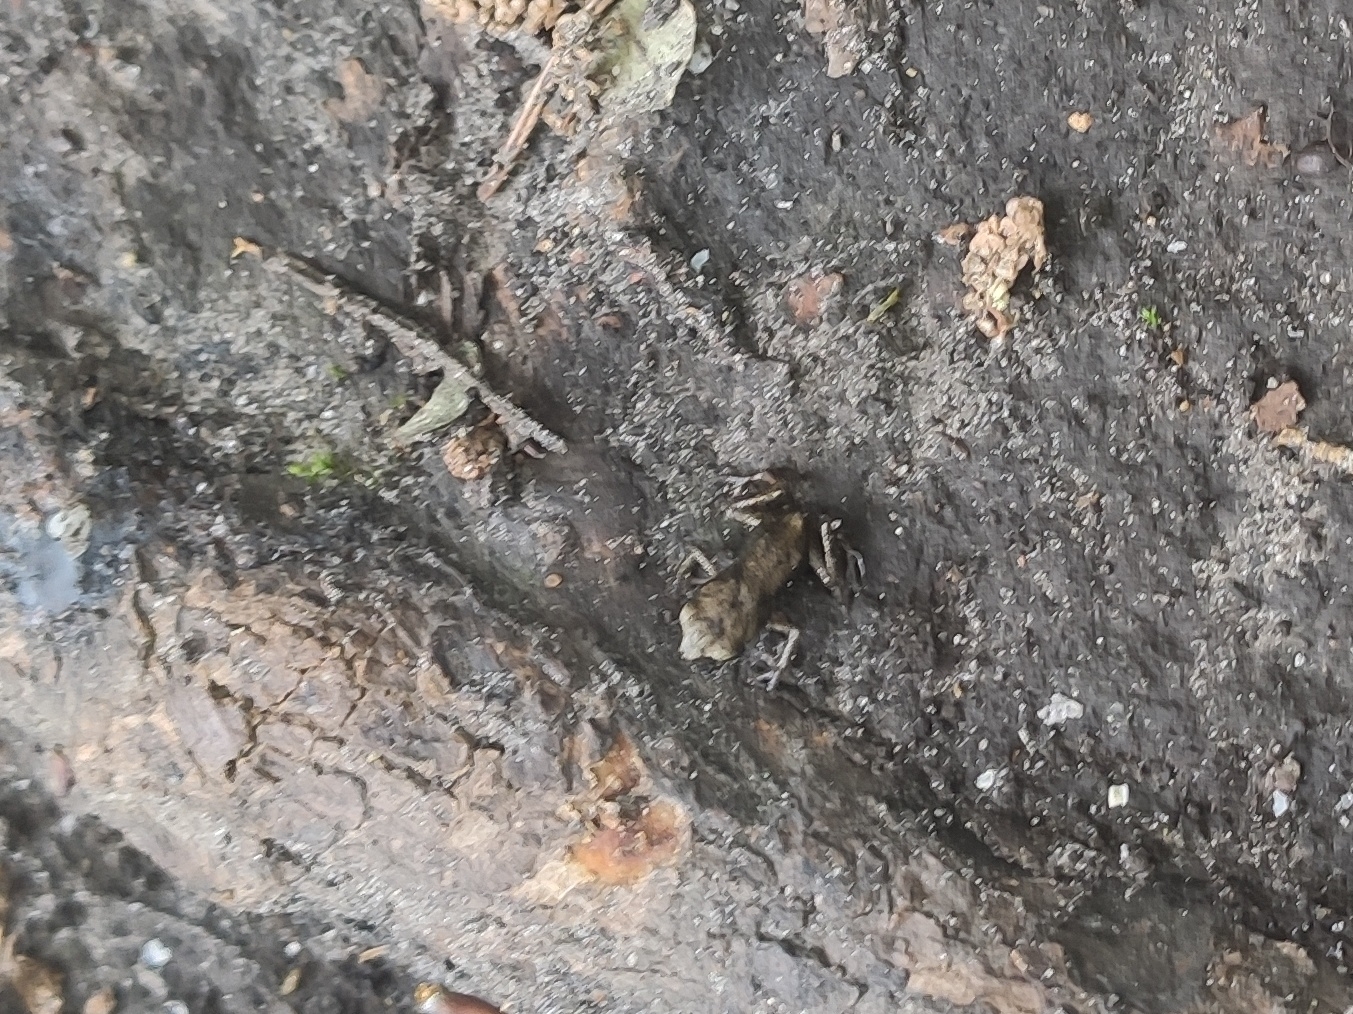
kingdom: Animalia
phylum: Chordata
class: Amphibia
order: Anura
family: Bufonidae
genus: Bufo
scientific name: Bufo bufo
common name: Common toad
